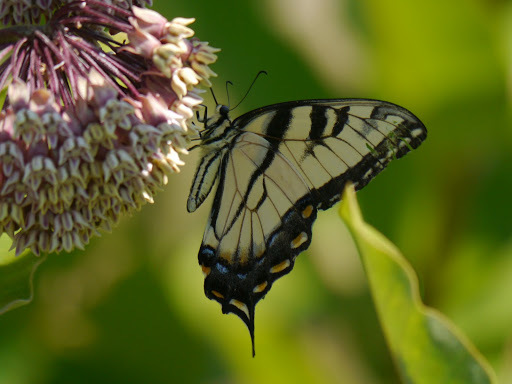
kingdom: Plantae
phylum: Tracheophyta
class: Magnoliopsida
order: Gentianales
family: Apocynaceae
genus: Asclepias
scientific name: Asclepias syriaca
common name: Common milkweed
